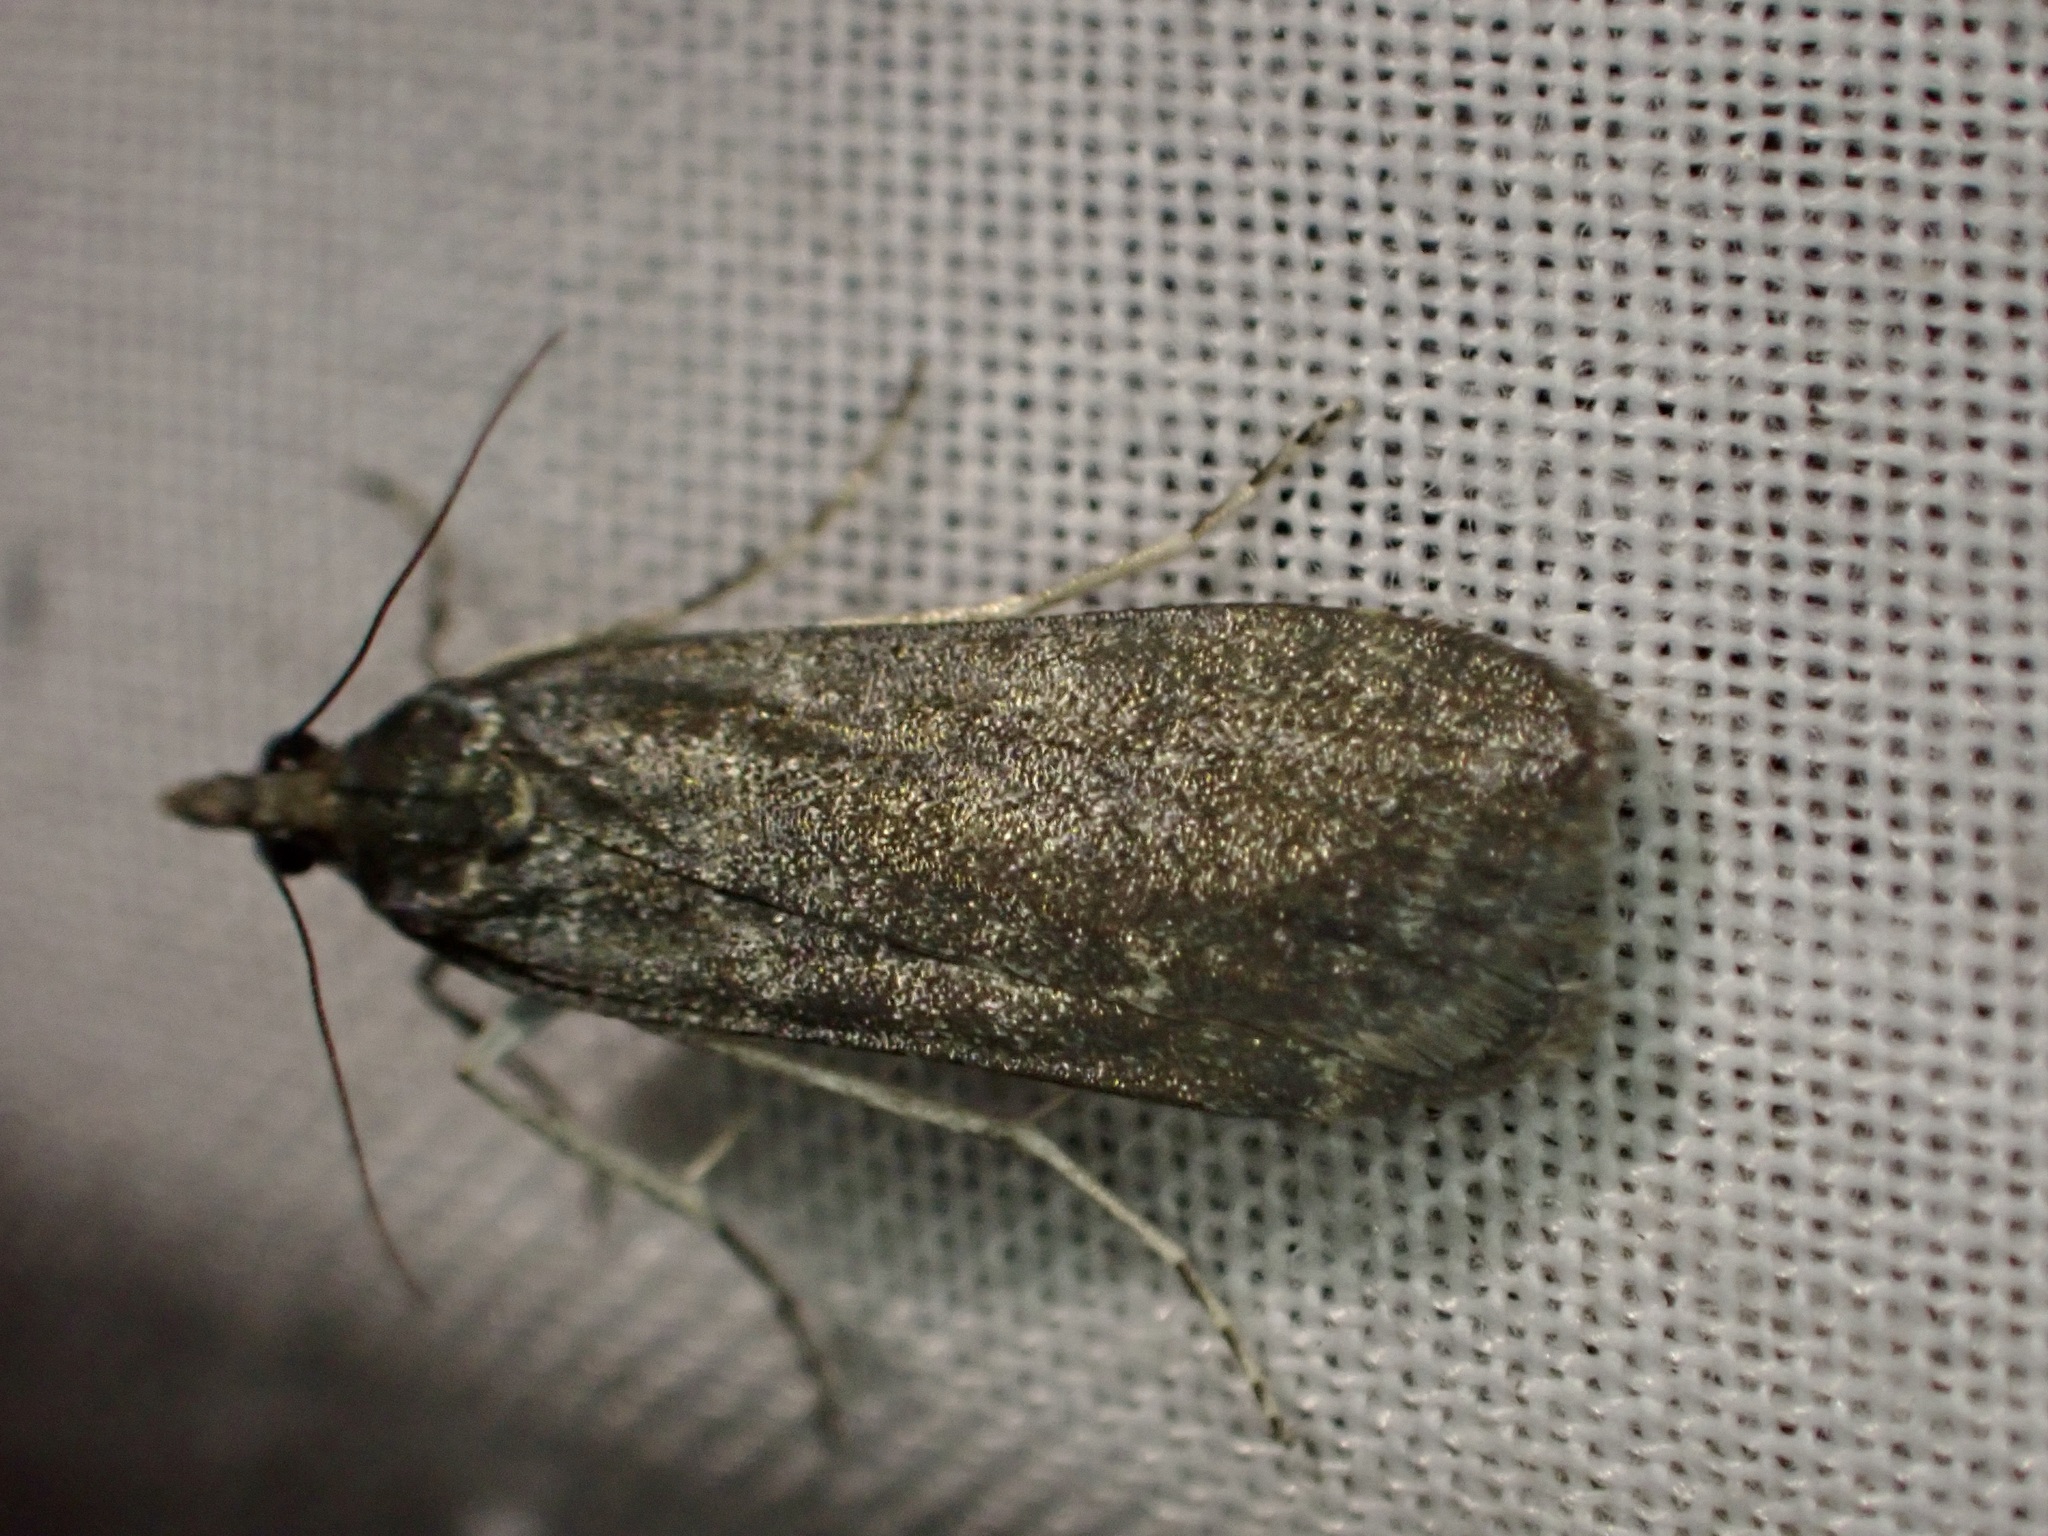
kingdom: Animalia
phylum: Arthropoda
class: Insecta
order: Lepidoptera
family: Crambidae
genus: Eudonia
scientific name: Eudonia cataxesta
